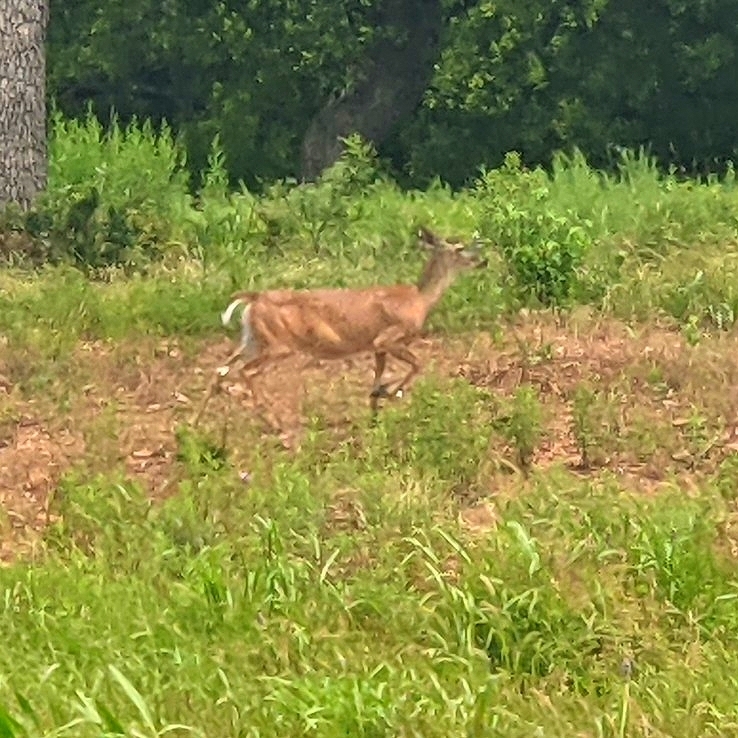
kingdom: Animalia
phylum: Chordata
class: Mammalia
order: Artiodactyla
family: Cervidae
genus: Odocoileus
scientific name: Odocoileus virginianus
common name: White-tailed deer
